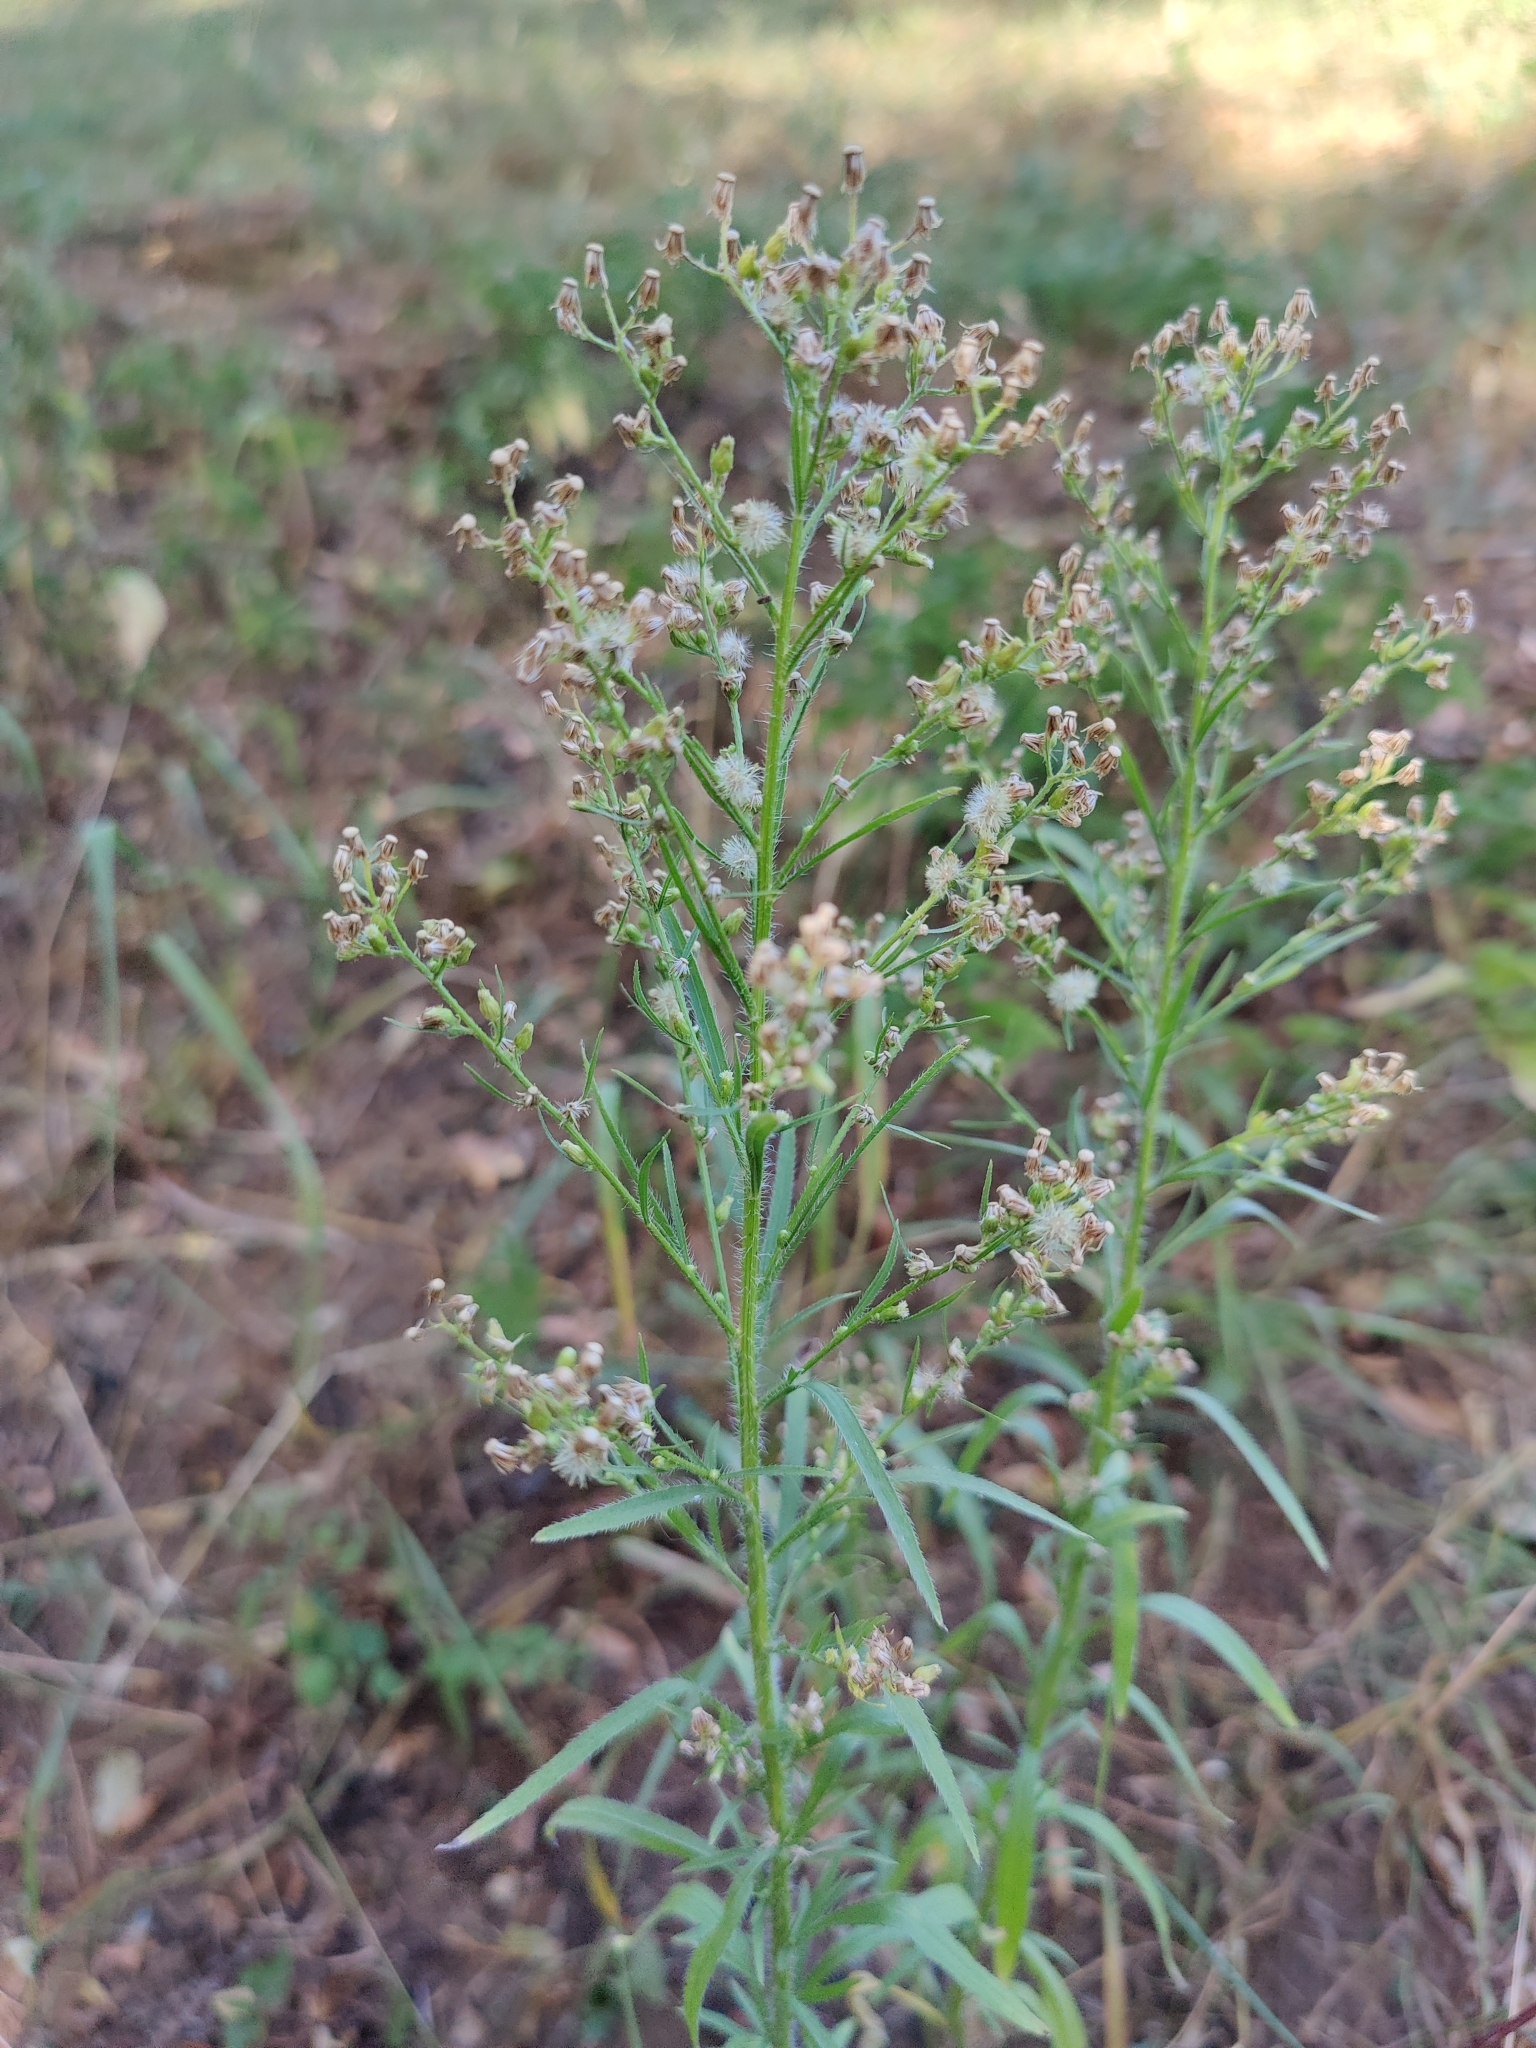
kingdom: Plantae
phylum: Tracheophyta
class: Magnoliopsida
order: Asterales
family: Asteraceae
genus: Erigeron
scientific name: Erigeron canadensis
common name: Canadian fleabane
